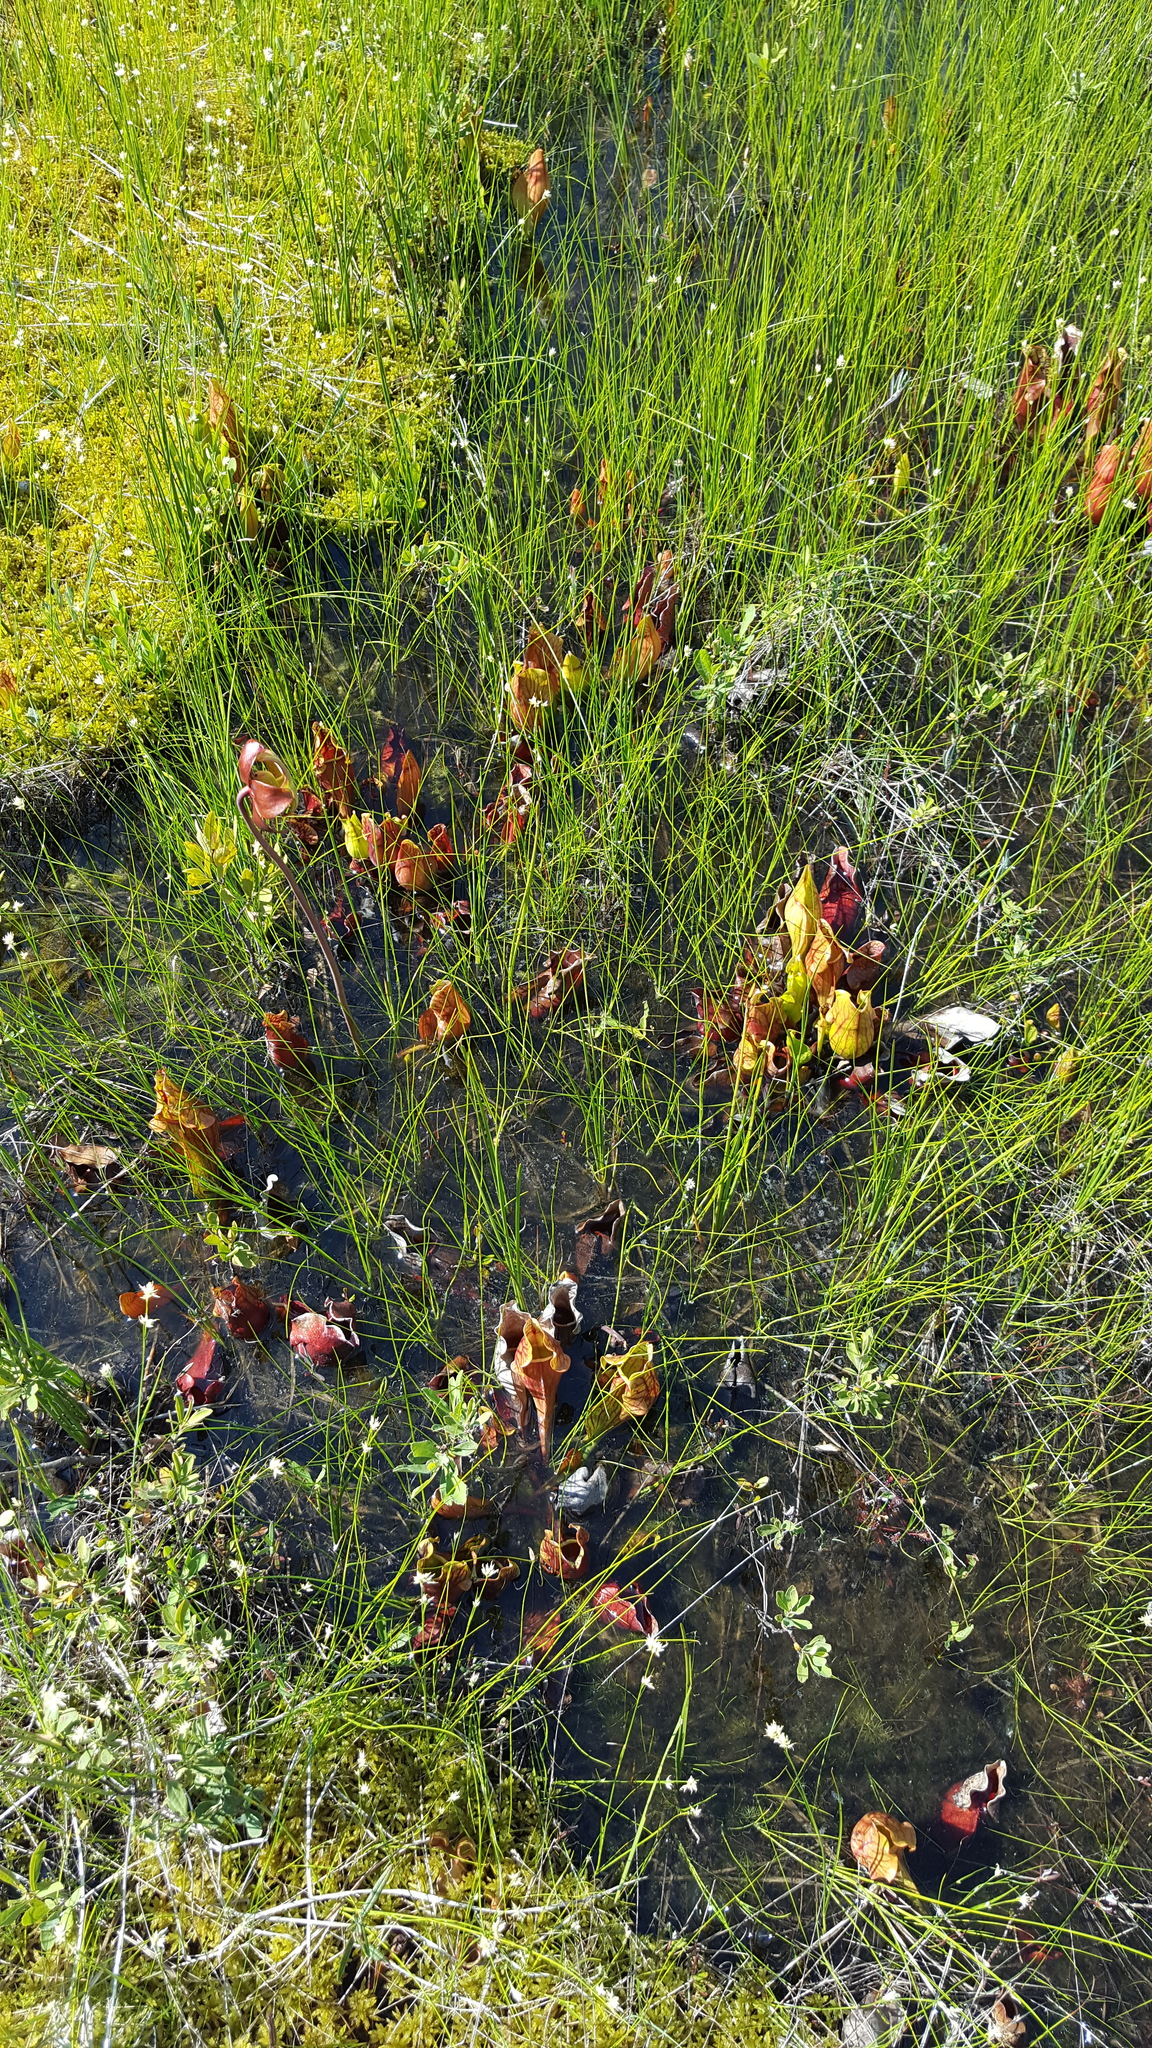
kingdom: Plantae
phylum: Tracheophyta
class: Magnoliopsida
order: Ericales
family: Sarraceniaceae
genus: Sarracenia
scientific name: Sarracenia purpurea
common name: Pitcherplant
